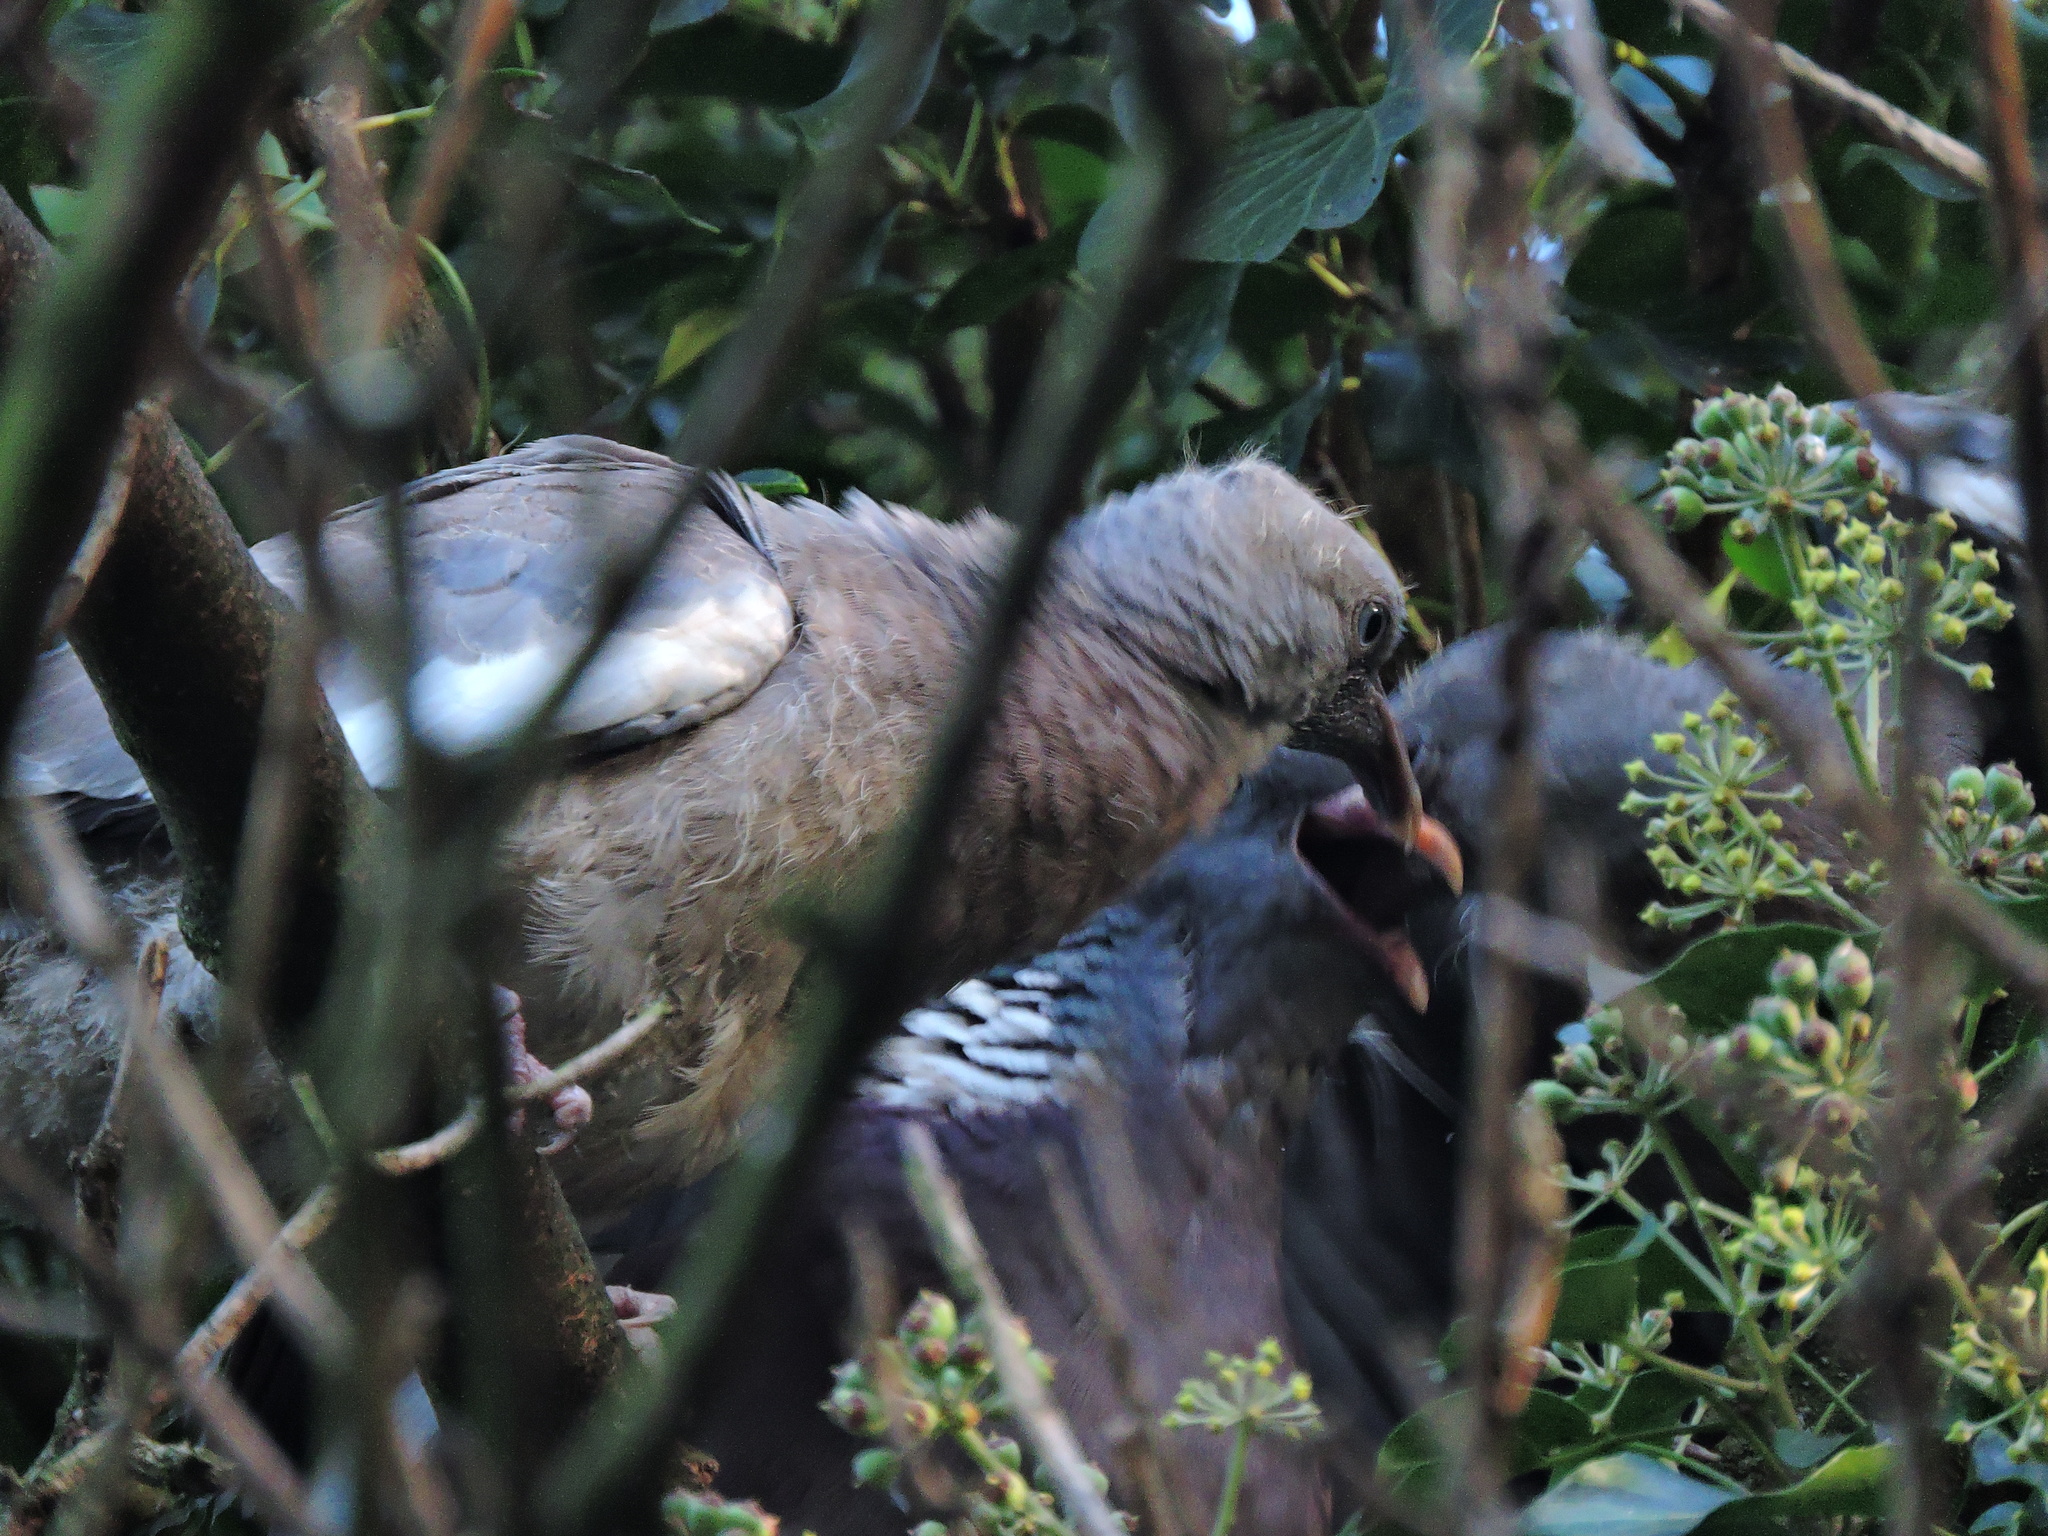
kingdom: Animalia
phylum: Chordata
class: Aves
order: Columbiformes
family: Columbidae
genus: Columba
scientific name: Columba palumbus
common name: Common wood pigeon
